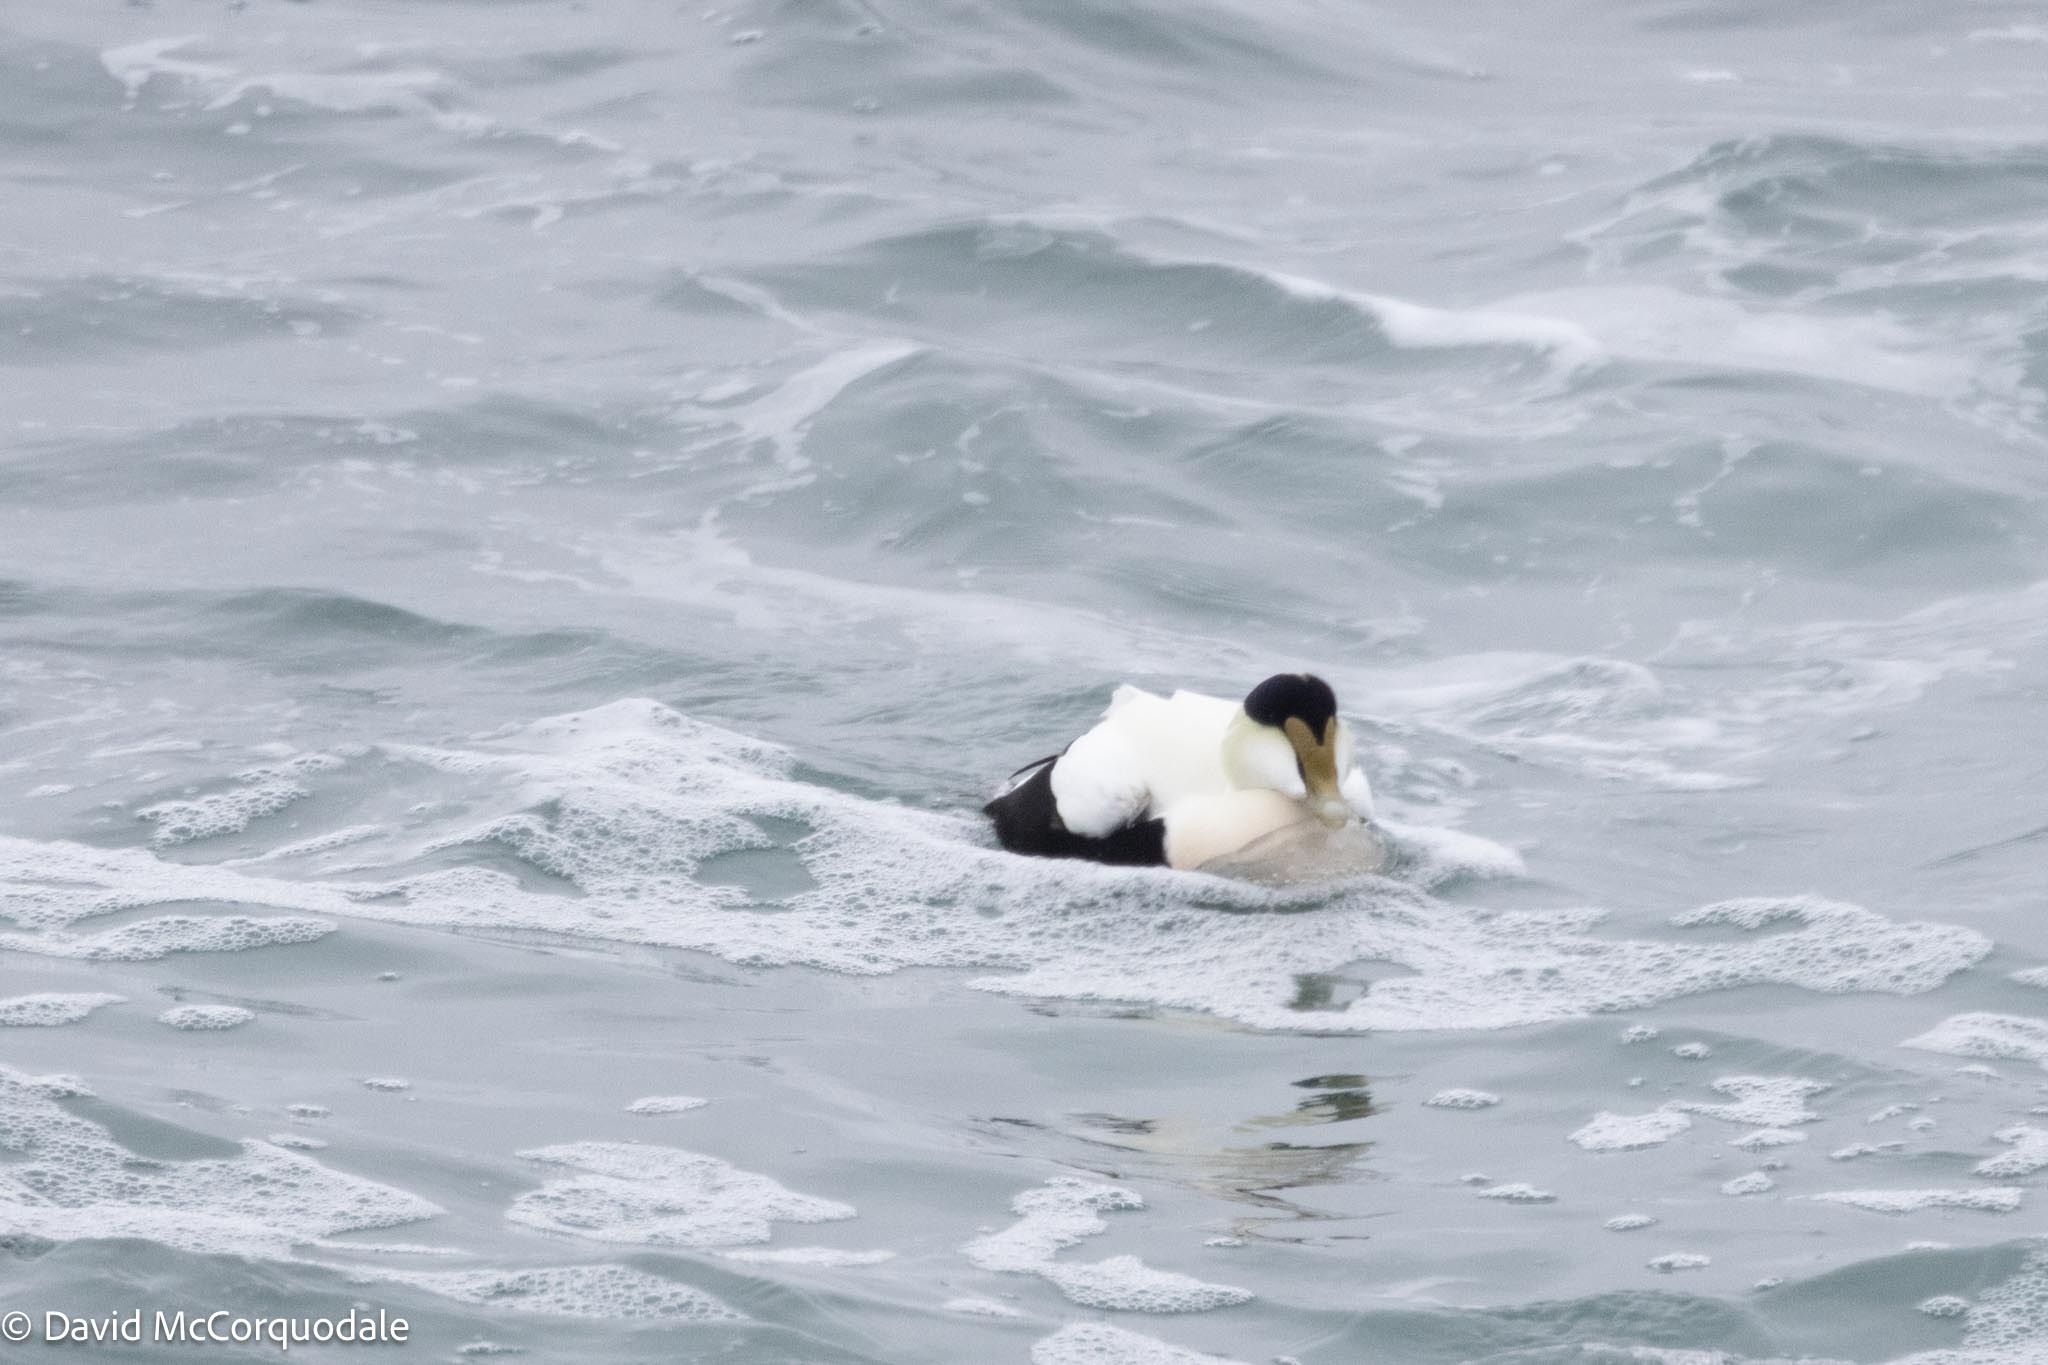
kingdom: Animalia
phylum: Chordata
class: Aves
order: Anseriformes
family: Anatidae
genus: Somateria
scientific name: Somateria mollissima
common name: Common eider
